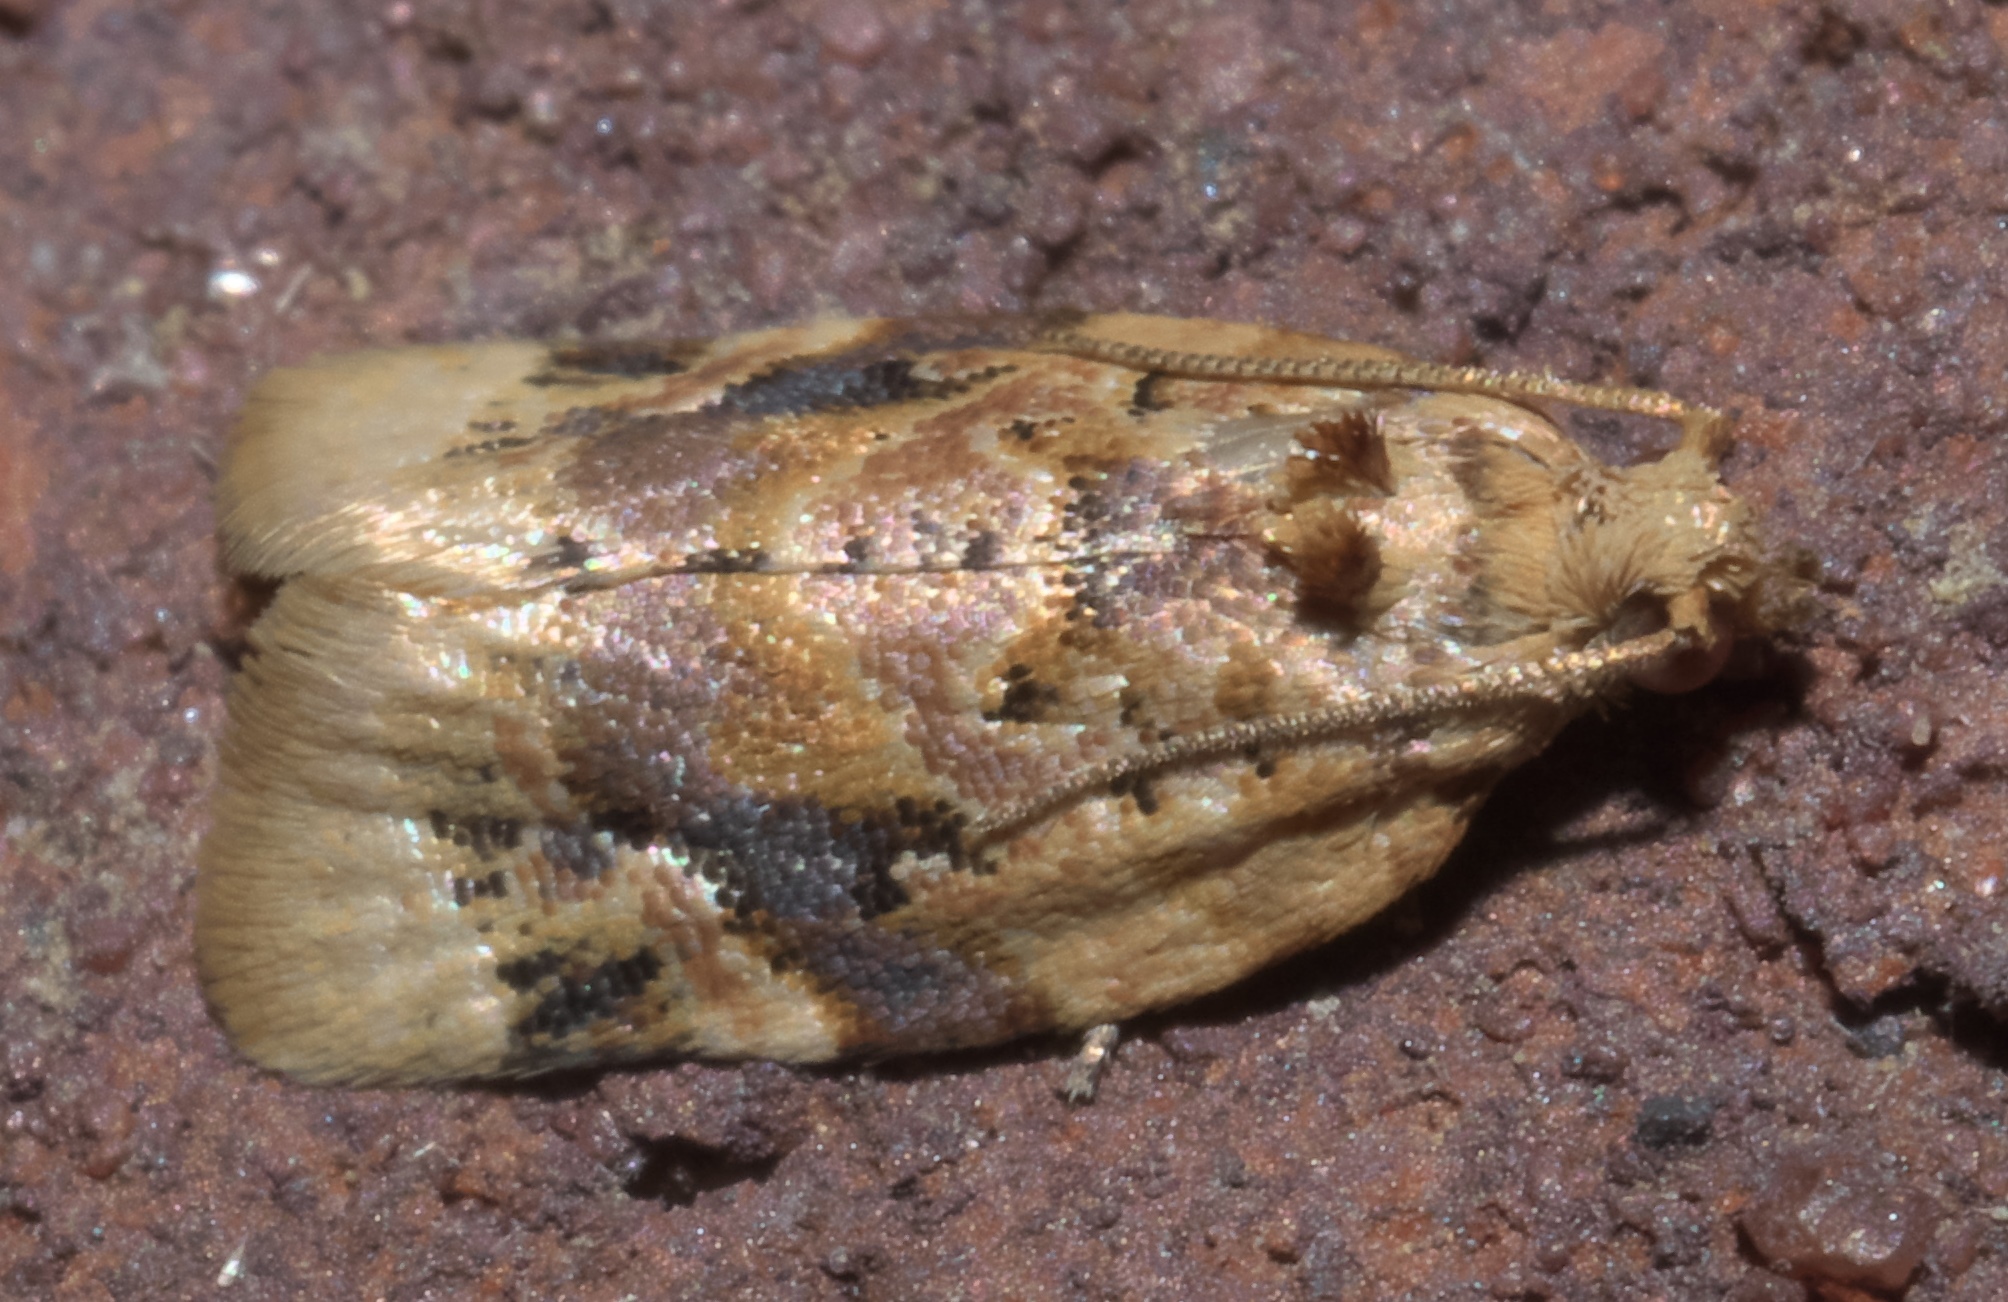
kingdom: Animalia
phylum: Arthropoda
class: Insecta
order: Lepidoptera
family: Tortricidae
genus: Argyrotaenia
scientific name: Argyrotaenia velutinana
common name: Red-banded leafroller moth
